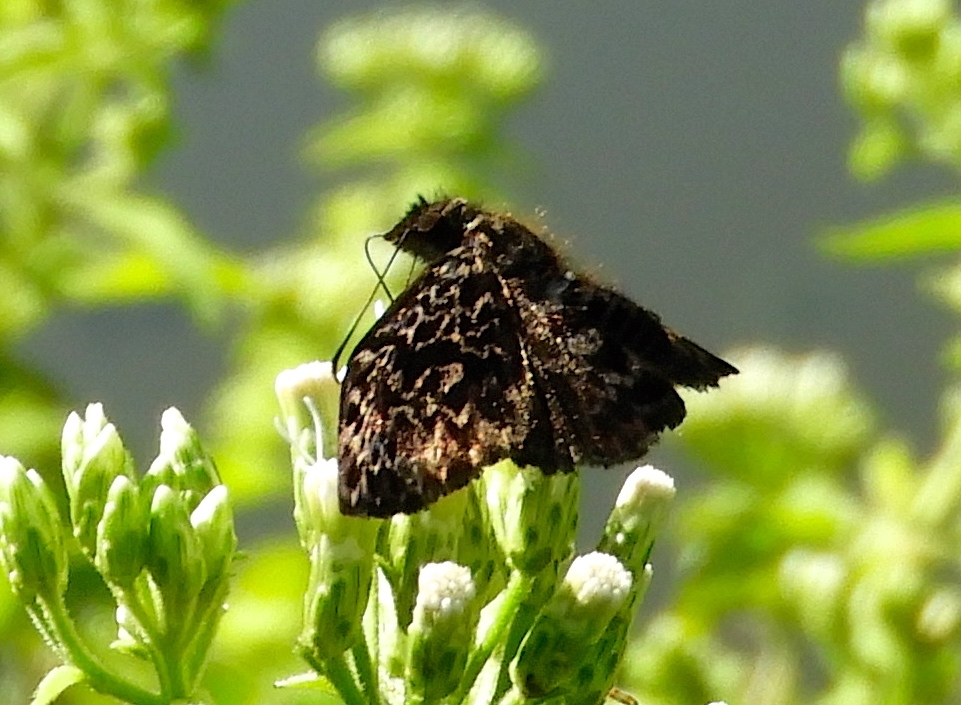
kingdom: Animalia
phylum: Arthropoda
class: Insecta
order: Lepidoptera
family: Hesperiidae
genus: Cycloglypha
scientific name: Cycloglypha thrasibulus
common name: Widespread bent-skipper
